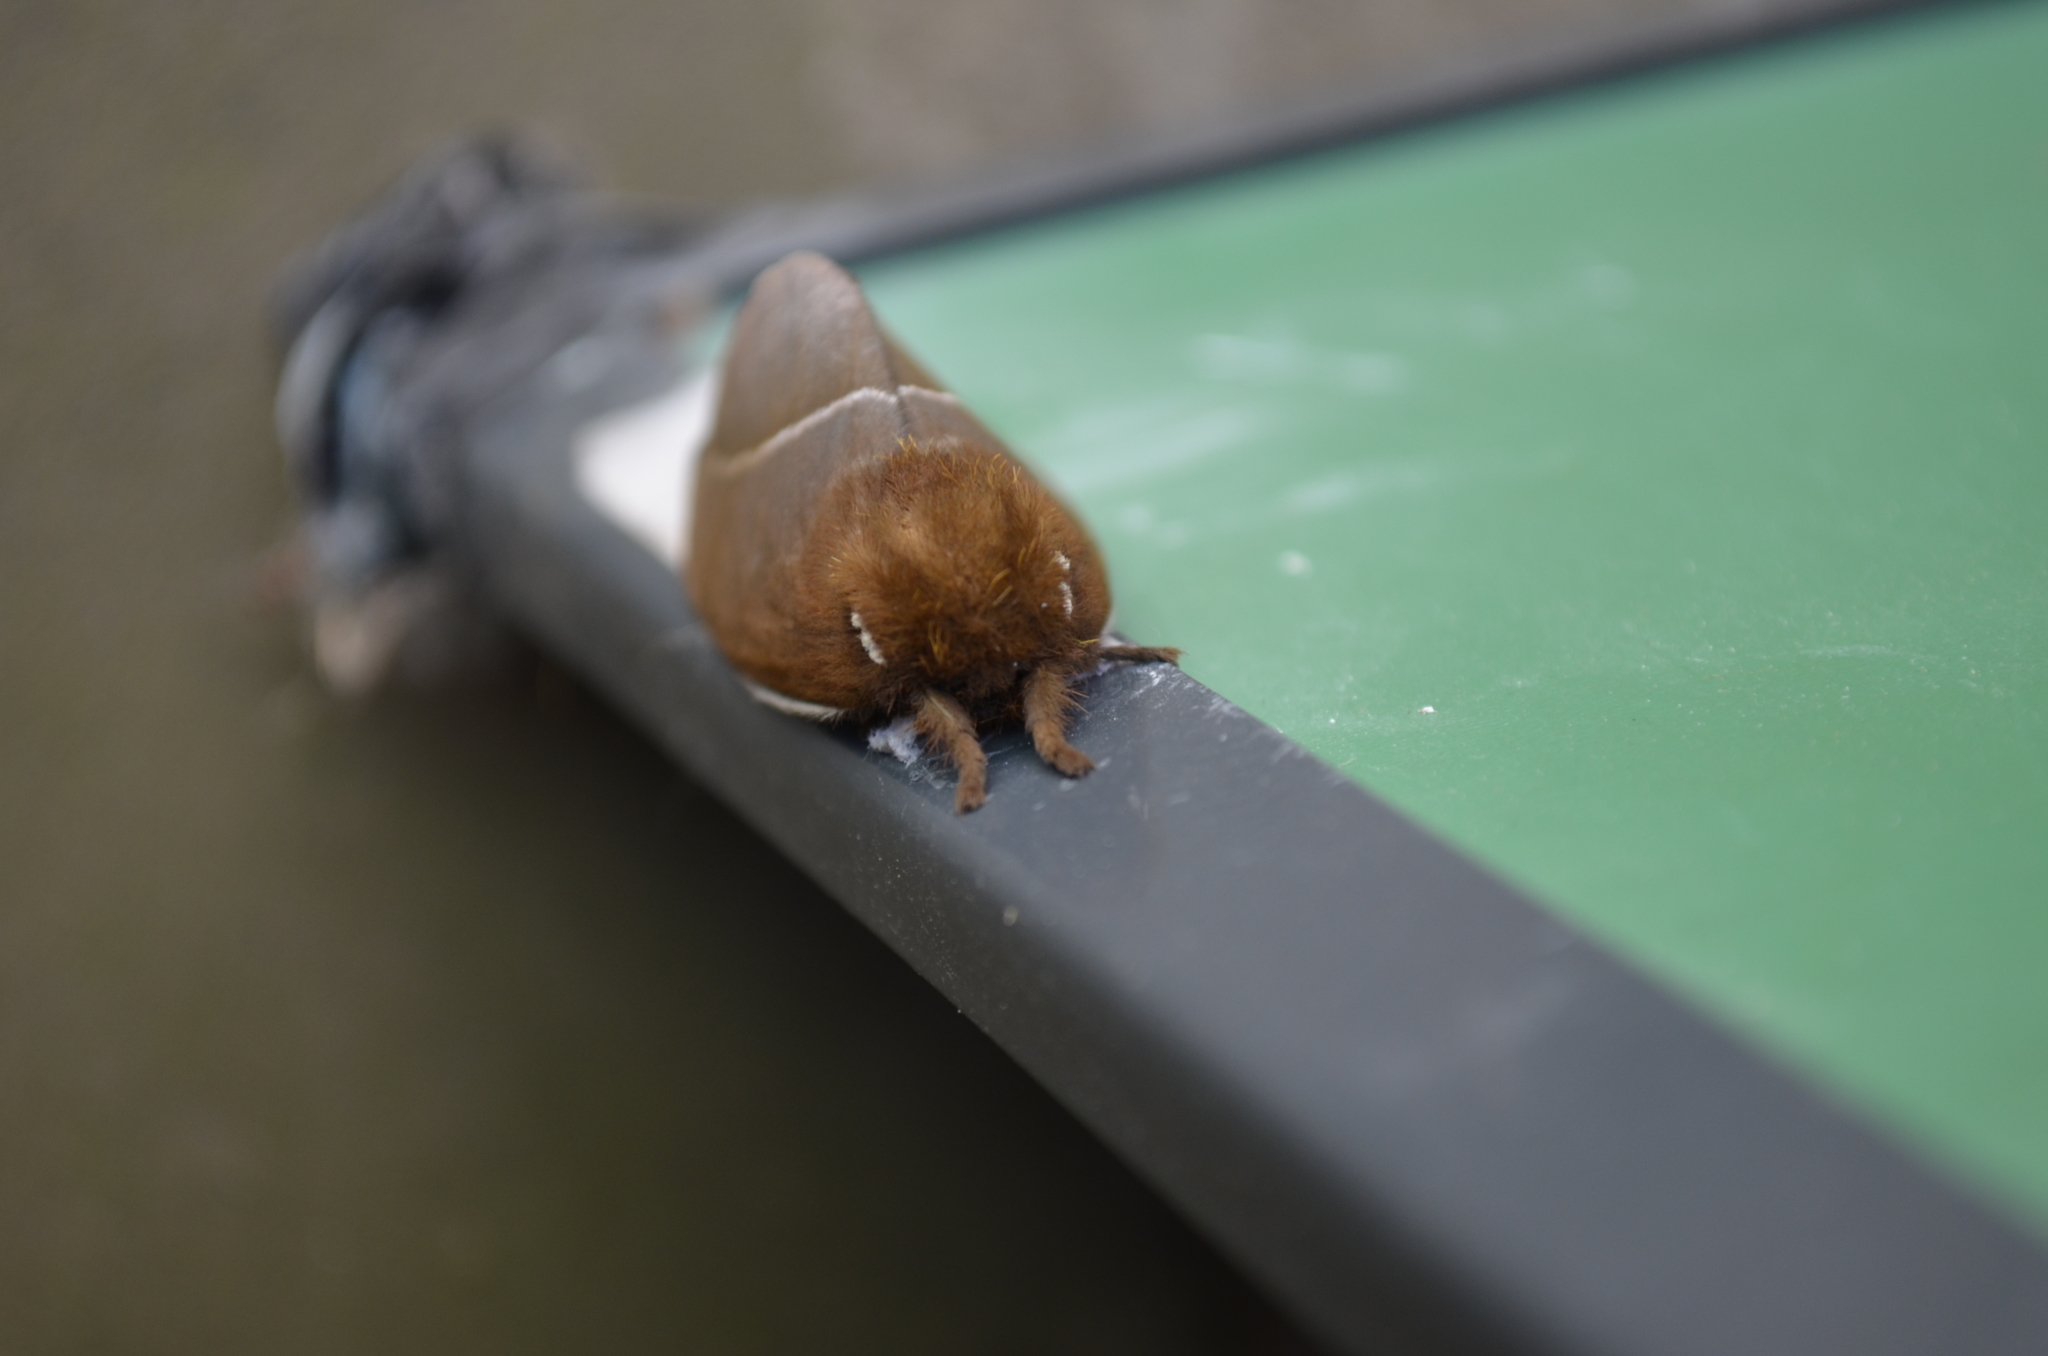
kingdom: Animalia
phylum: Arthropoda
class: Insecta
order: Lepidoptera
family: Saturniidae
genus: Automeris
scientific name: Automeris naranja
